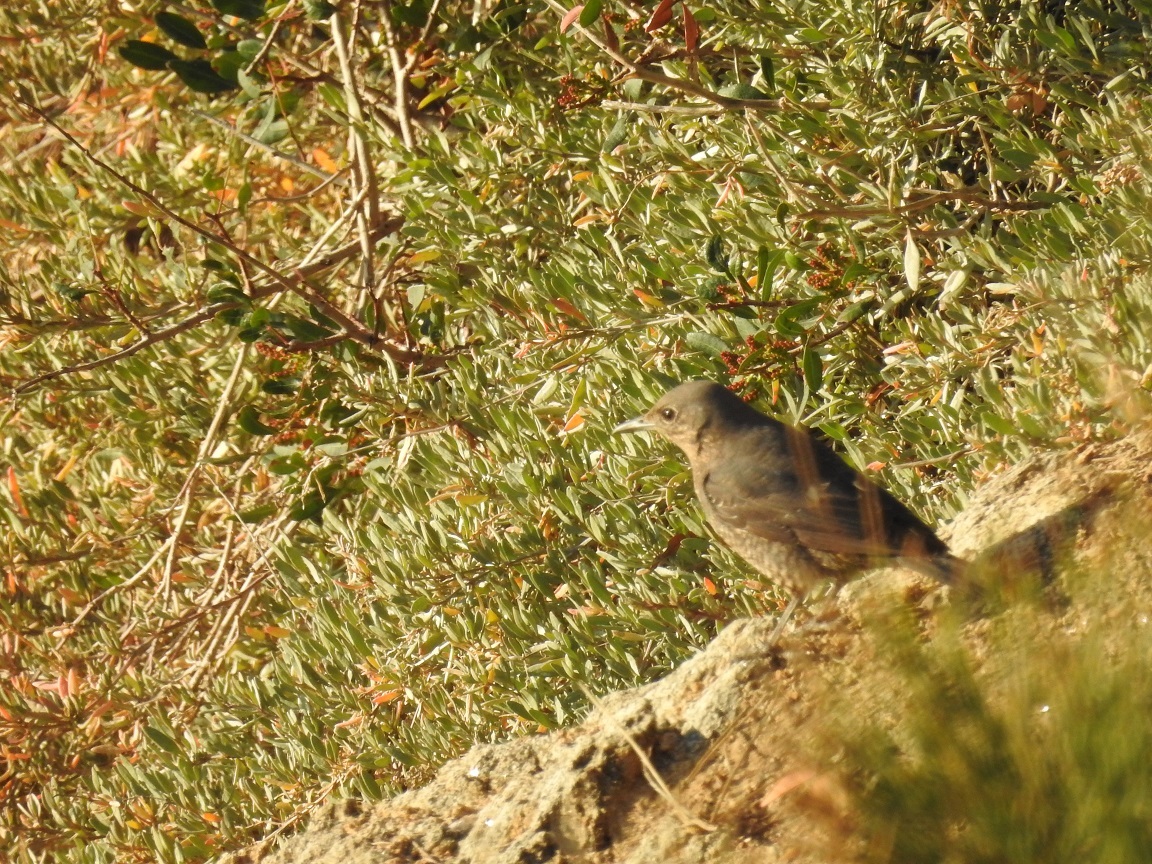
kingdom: Animalia
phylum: Chordata
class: Aves
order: Passeriformes
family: Muscicapidae
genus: Monticola
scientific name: Monticola solitarius
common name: Blue rock thrush
